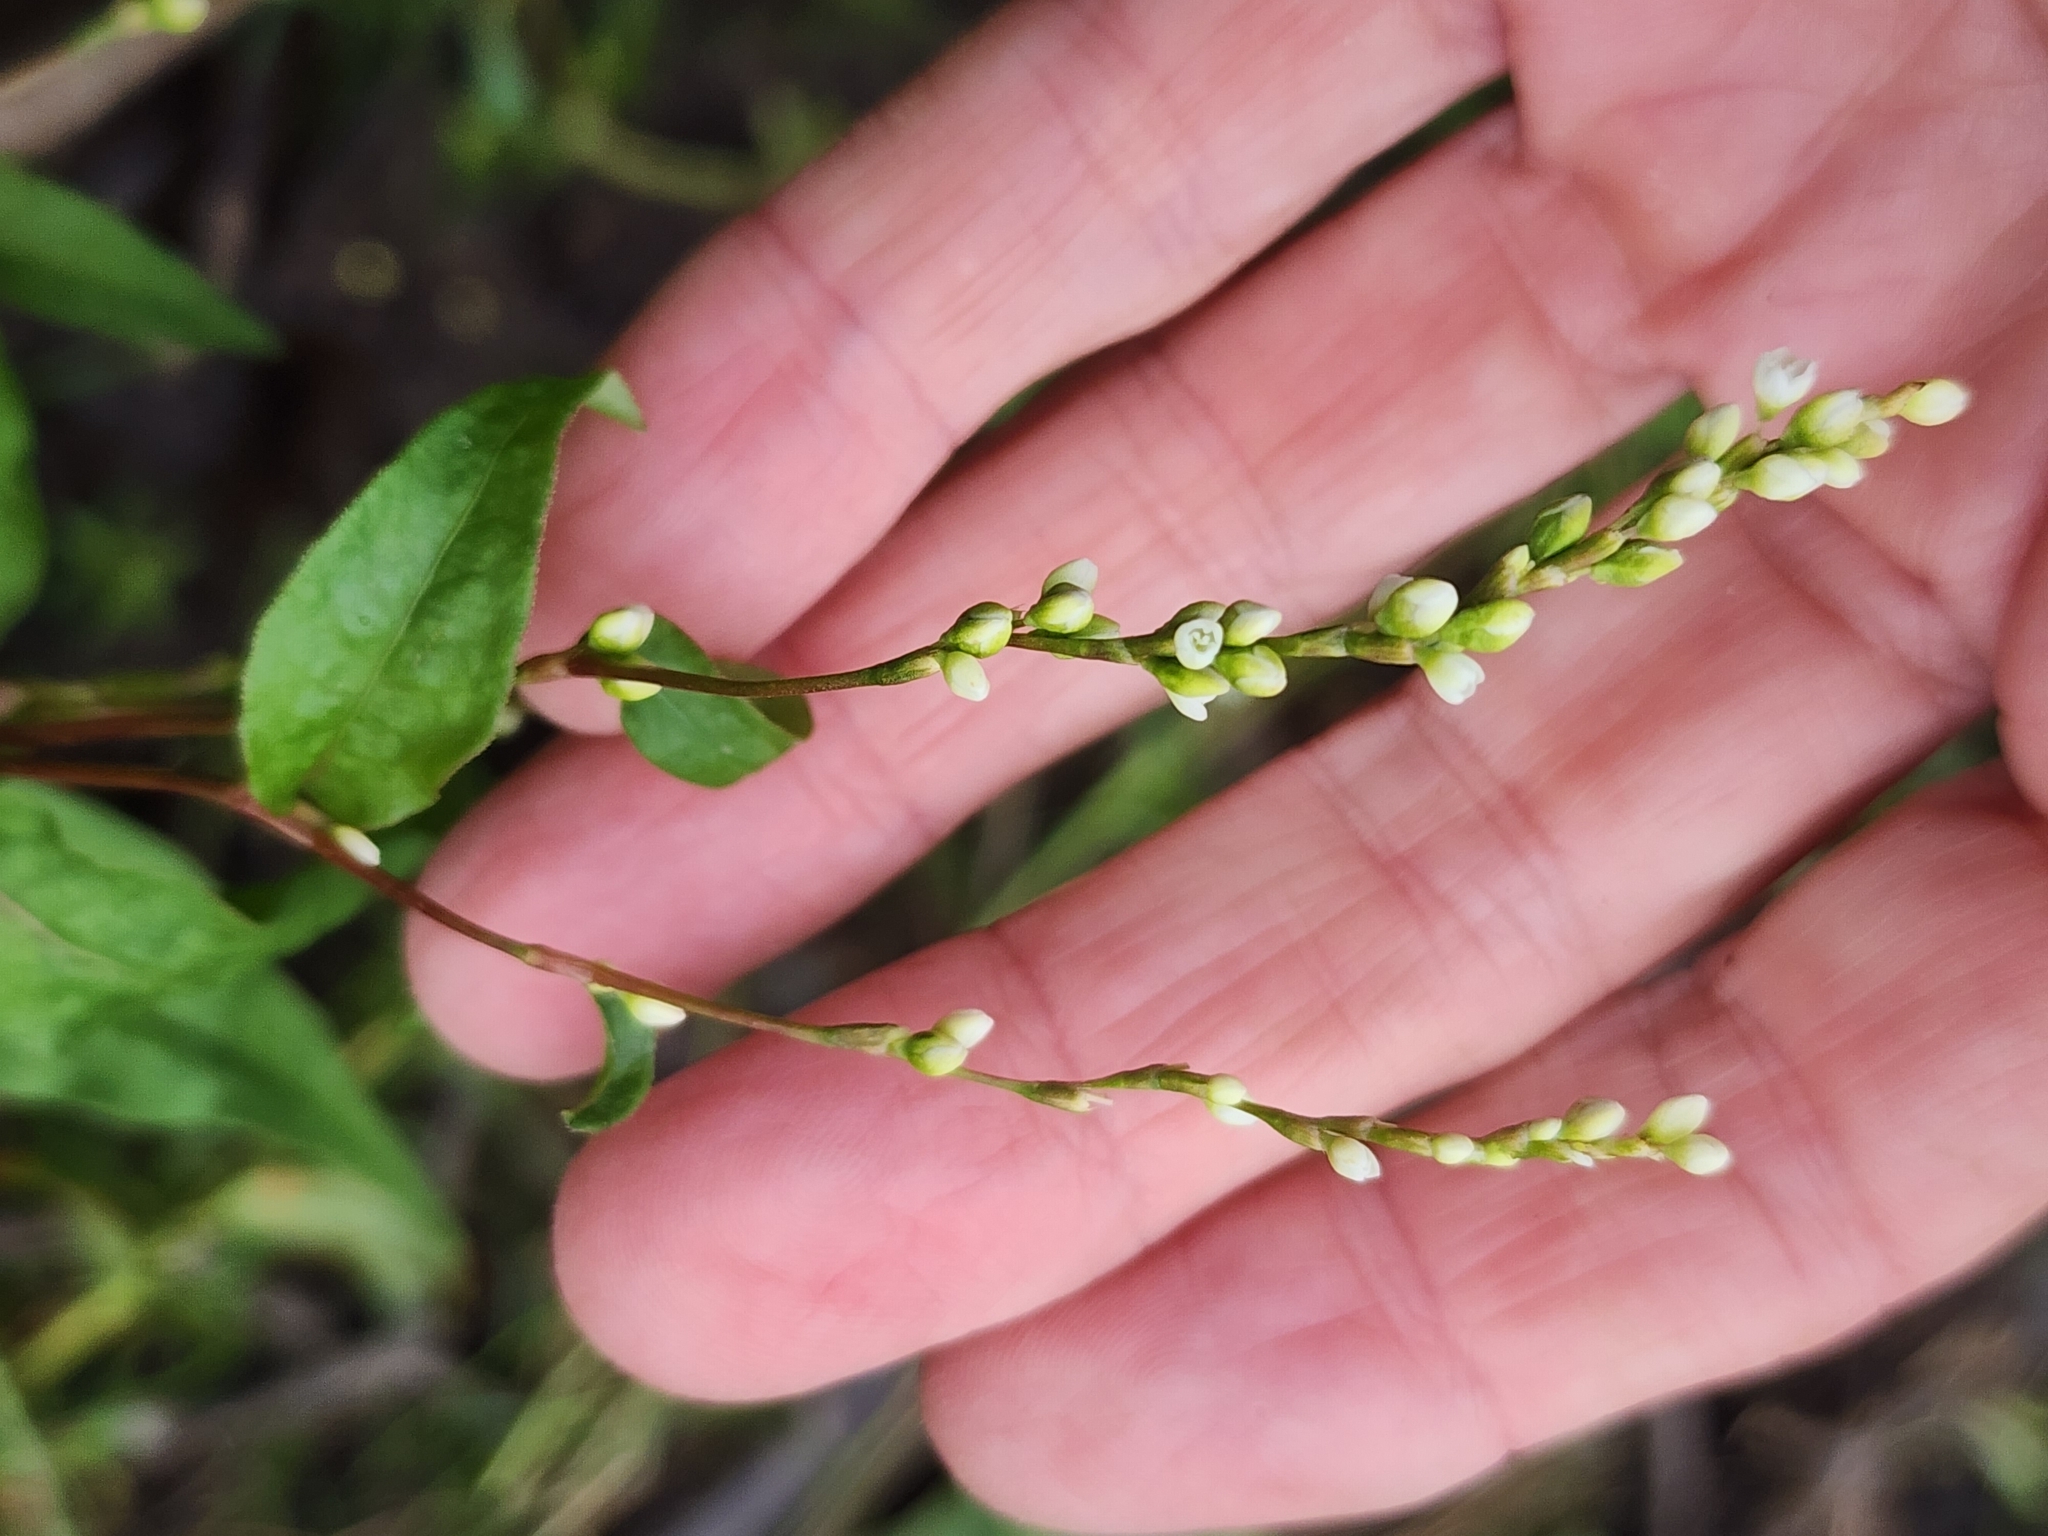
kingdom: Plantae
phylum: Tracheophyta
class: Magnoliopsida
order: Caryophyllales
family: Polygonaceae
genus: Persicaria
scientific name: Persicaria punctata
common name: Dotted smartweed
